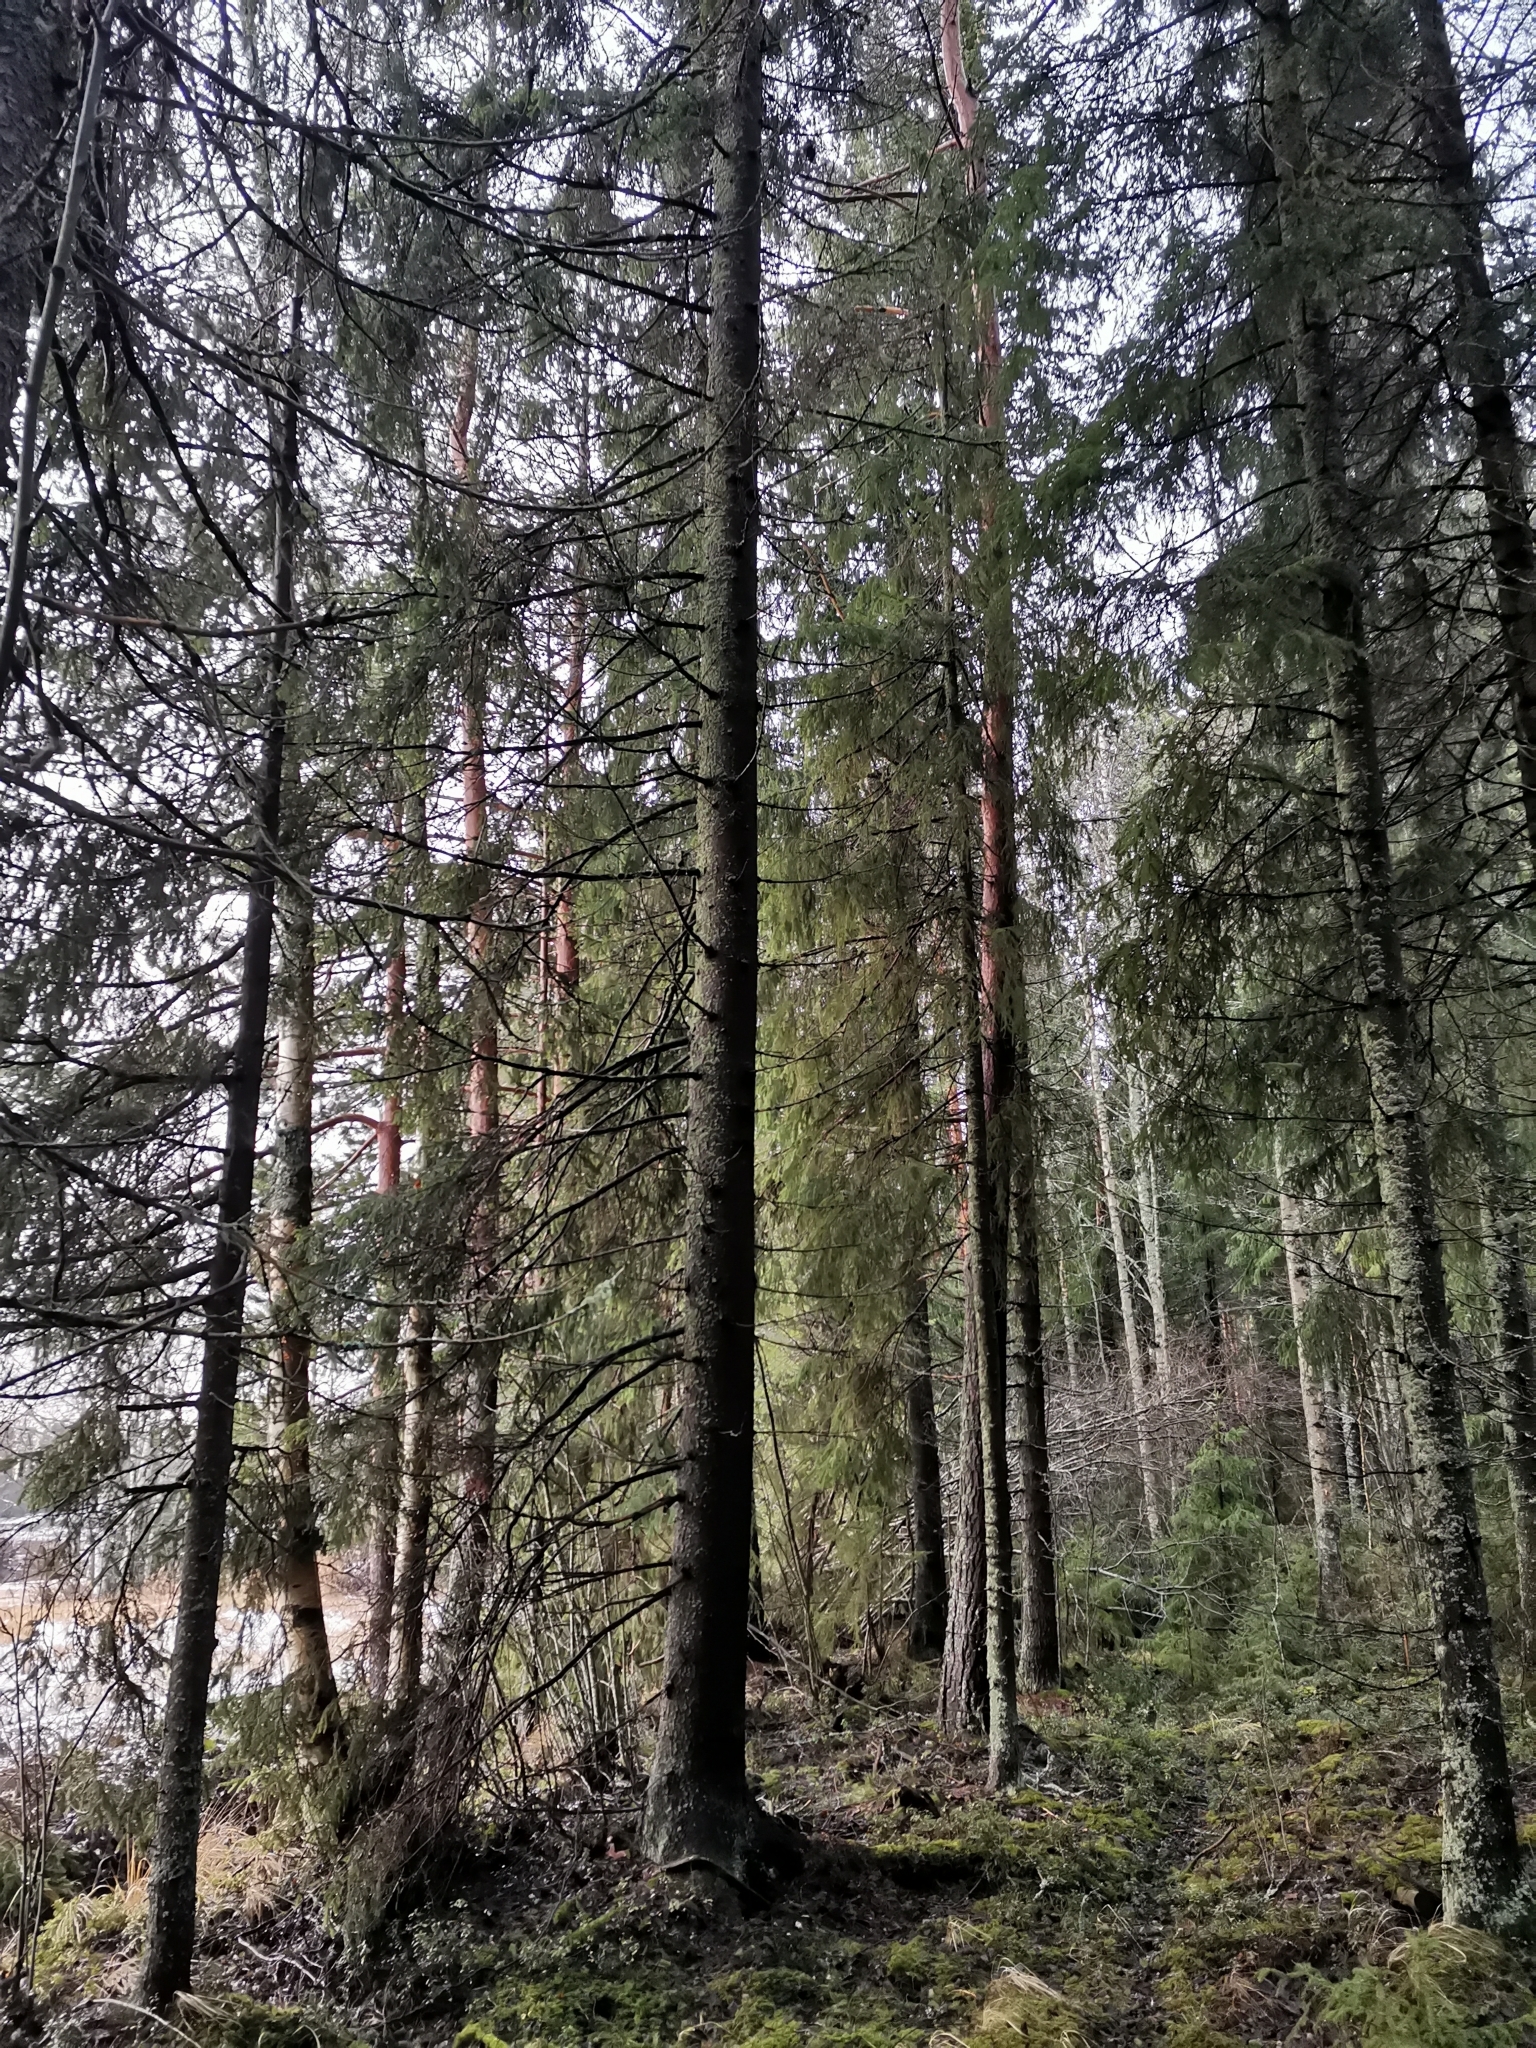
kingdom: Animalia
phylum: Chordata
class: Mammalia
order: Rodentia
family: Sciuridae
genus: Pteromys
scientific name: Pteromys volans
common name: Siberian flying squirrel
